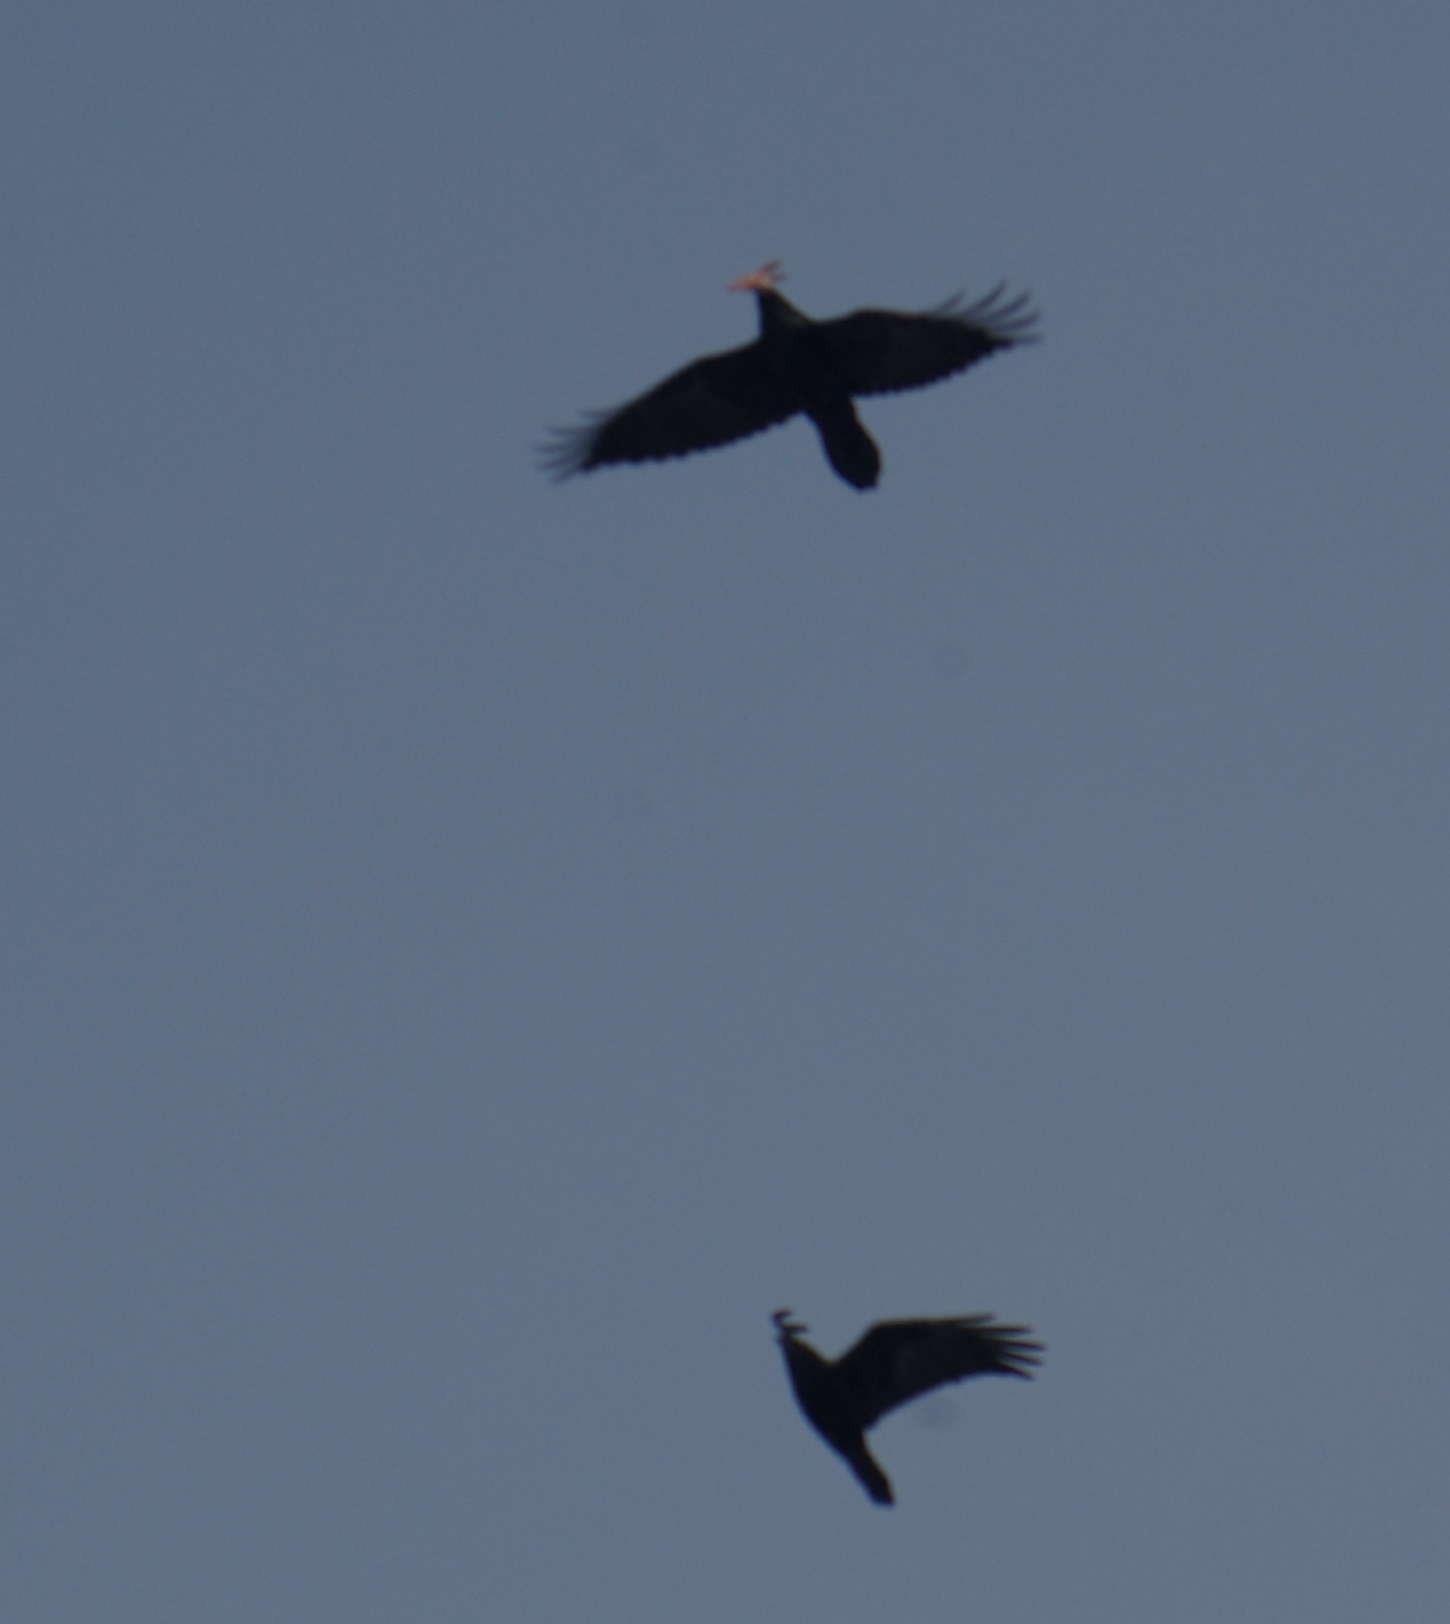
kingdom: Animalia
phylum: Chordata
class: Aves
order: Passeriformes
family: Corvidae
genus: Corvus
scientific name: Corvus corax
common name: Common raven
